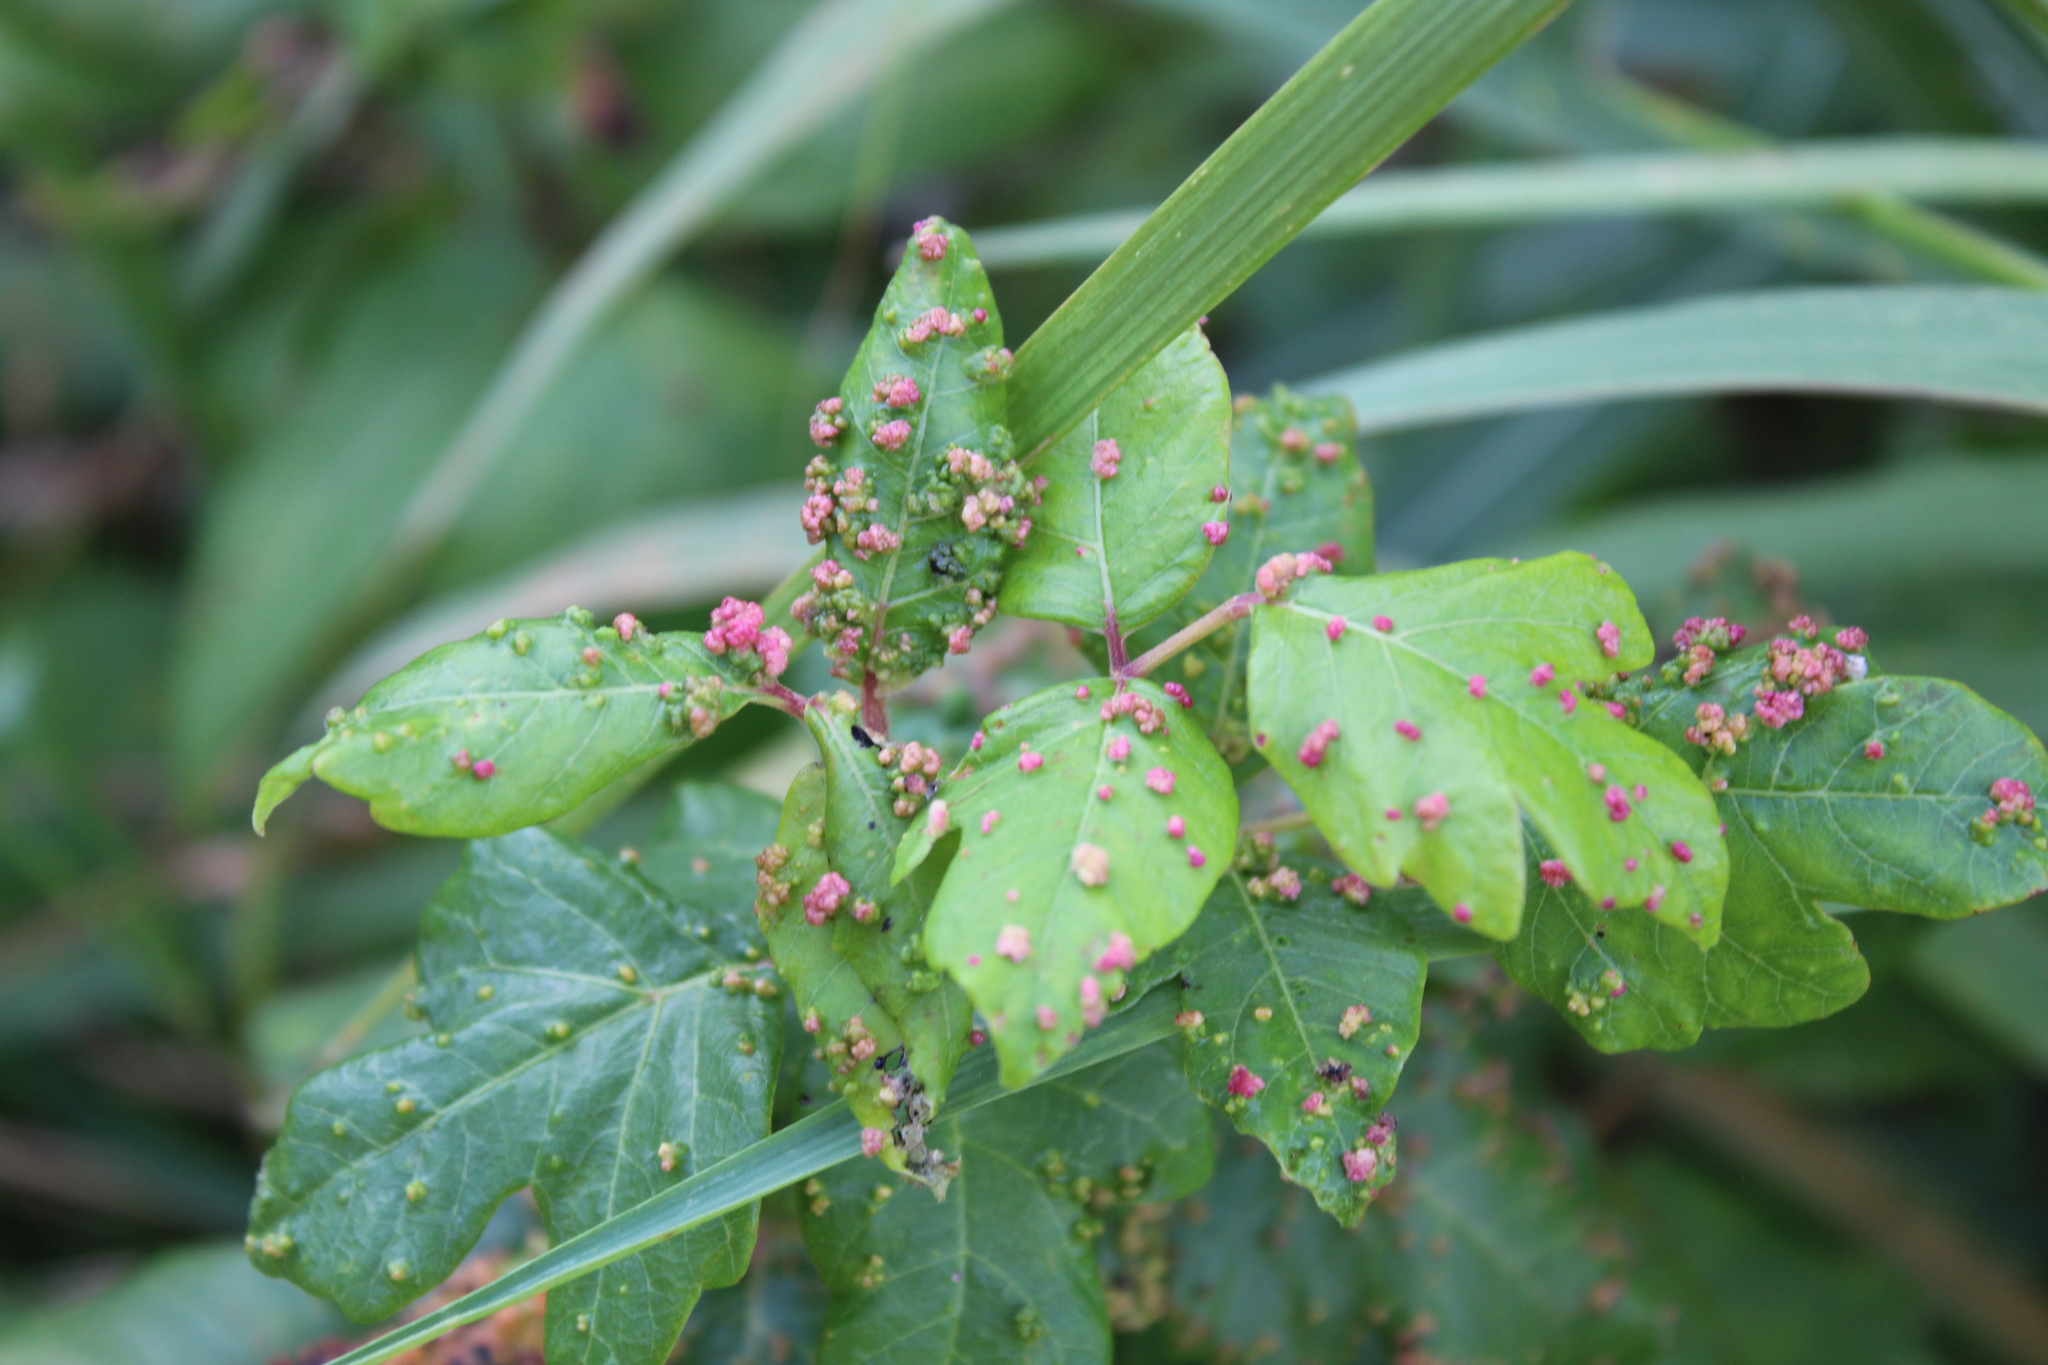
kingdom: Animalia
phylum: Arthropoda
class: Arachnida
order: Trombidiformes
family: Eriophyidae
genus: Aculops
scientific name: Aculops
